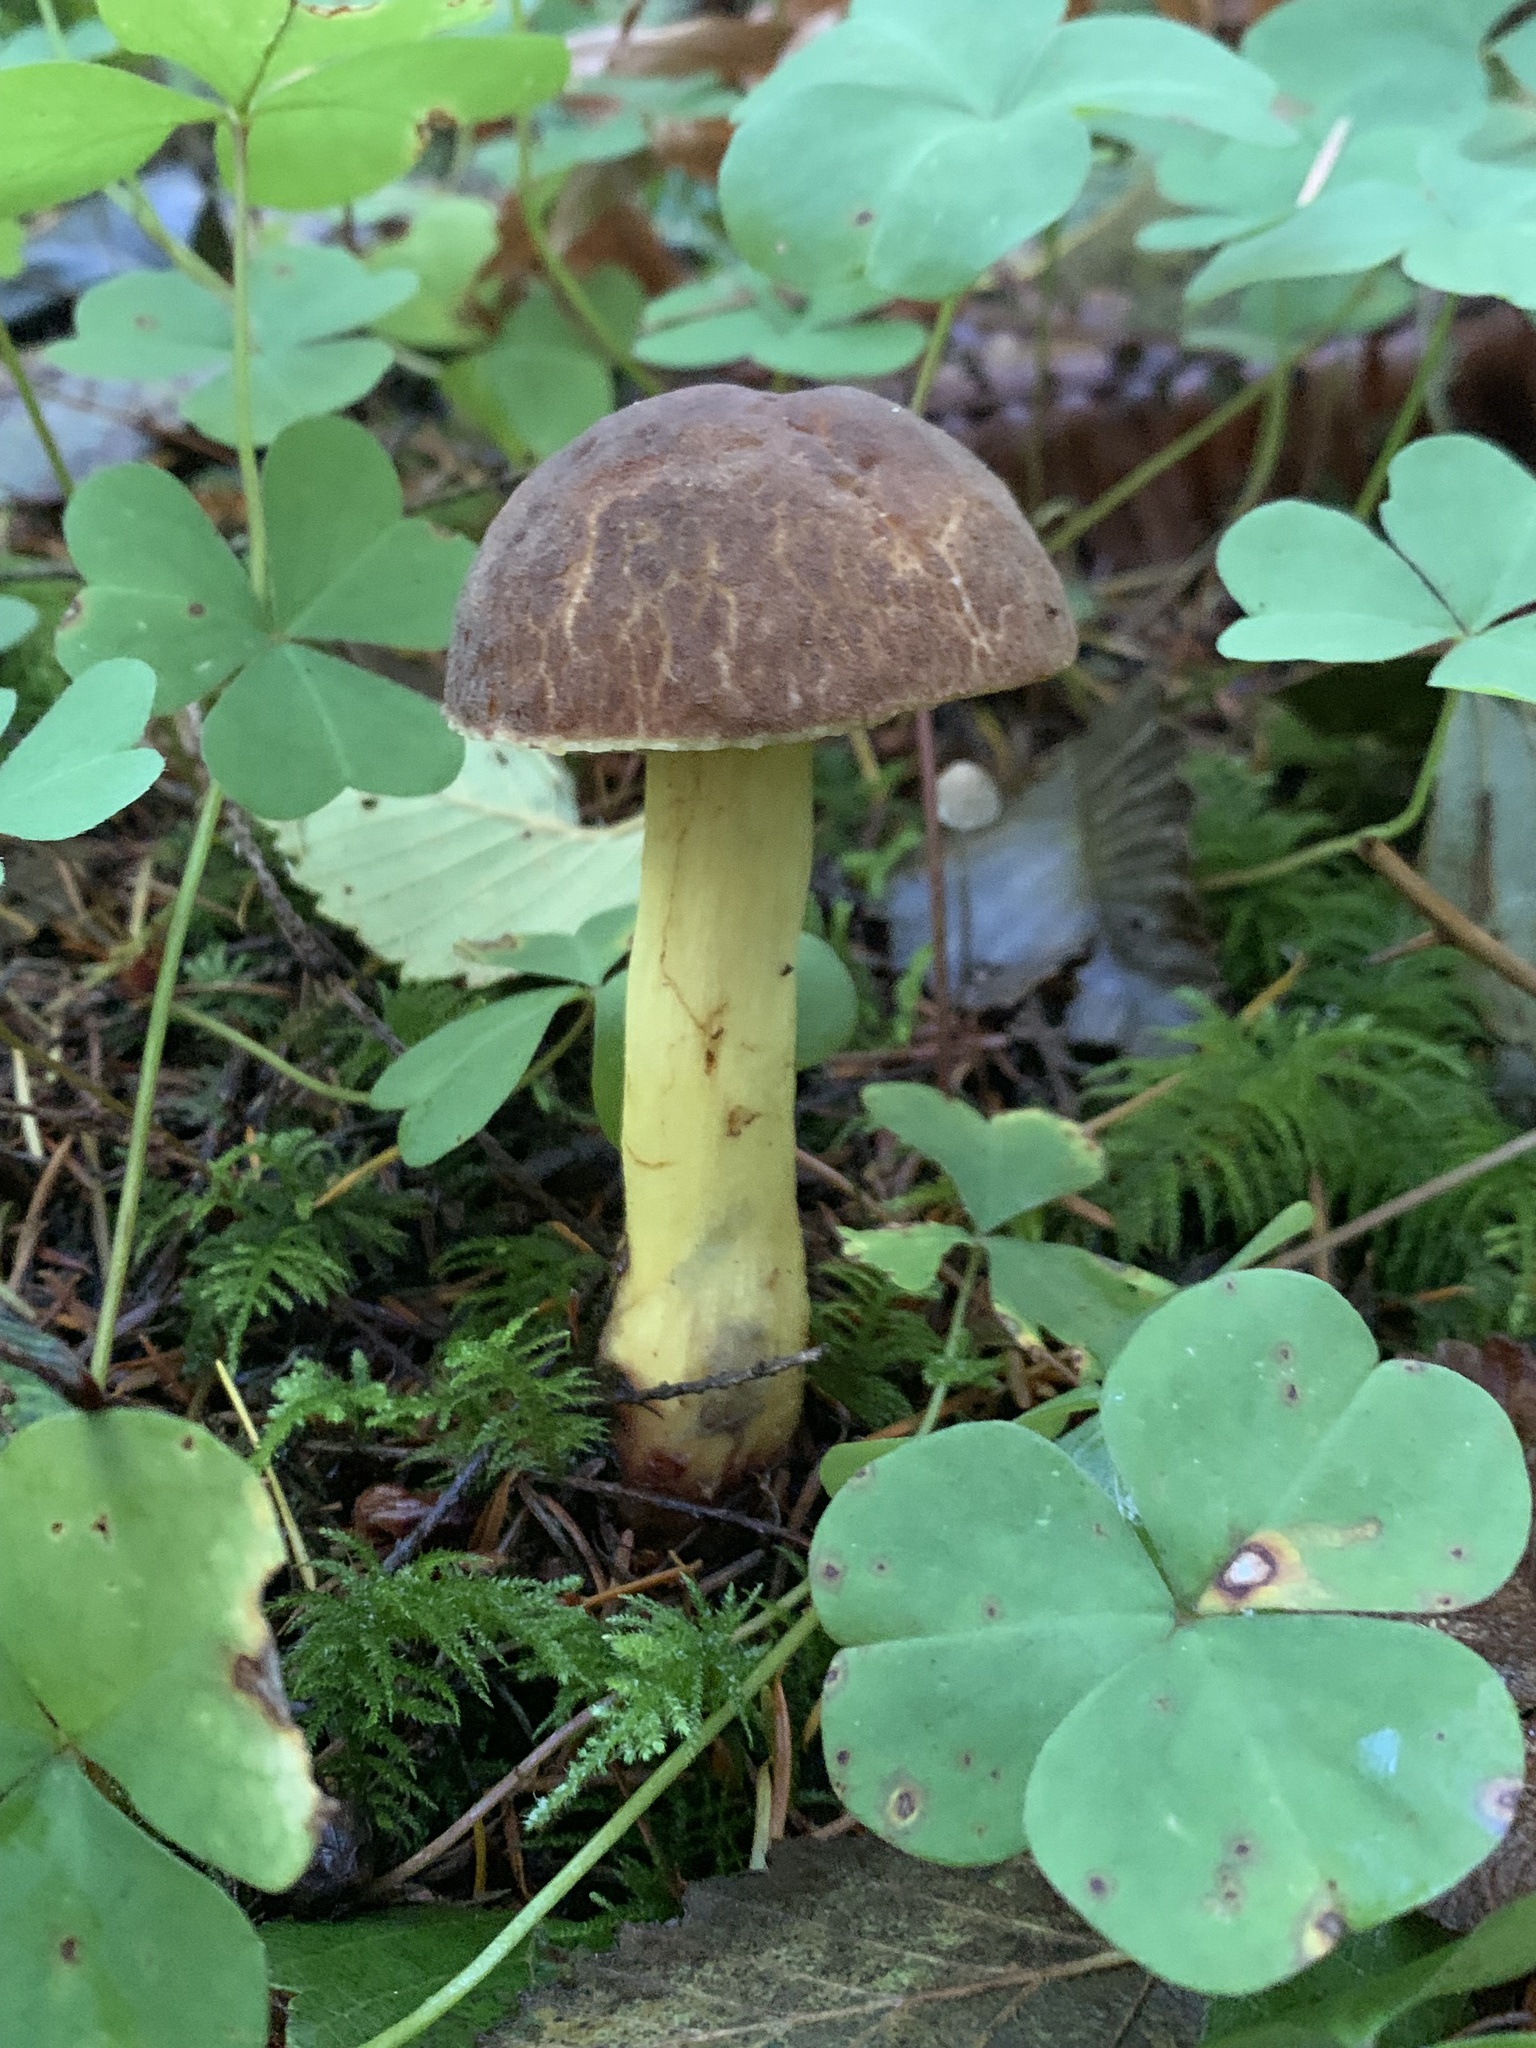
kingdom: Fungi
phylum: Basidiomycota
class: Agaricomycetes
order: Boletales
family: Boletaceae
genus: Xerocomellus
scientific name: Xerocomellus diffractus
